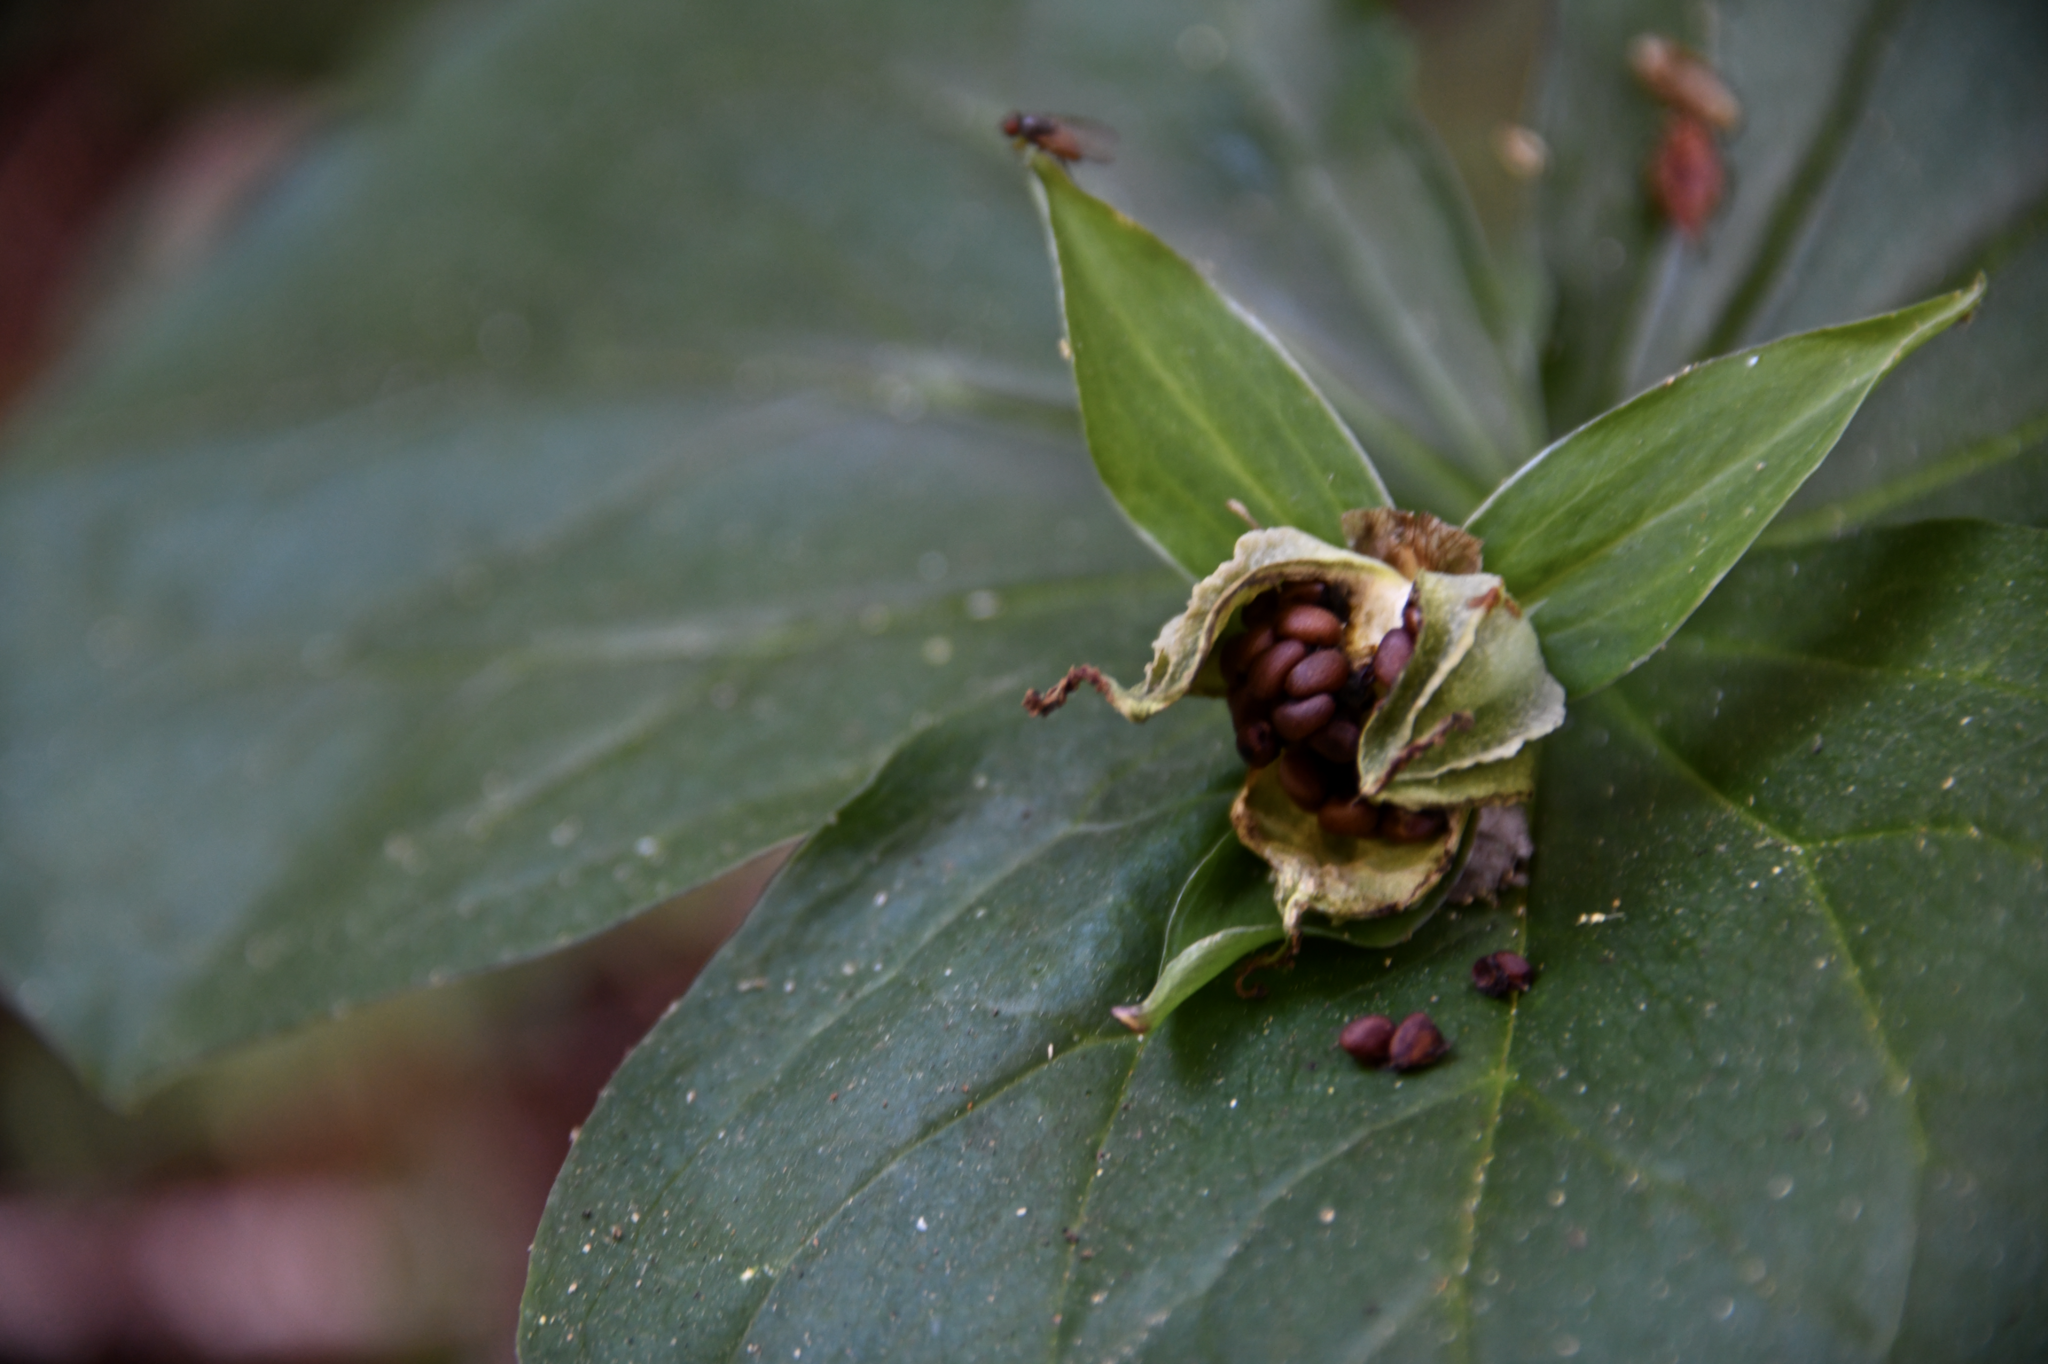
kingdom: Plantae
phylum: Tracheophyta
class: Liliopsida
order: Liliales
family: Melanthiaceae
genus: Trillium
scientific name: Trillium ovatum
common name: Pacific trillium
